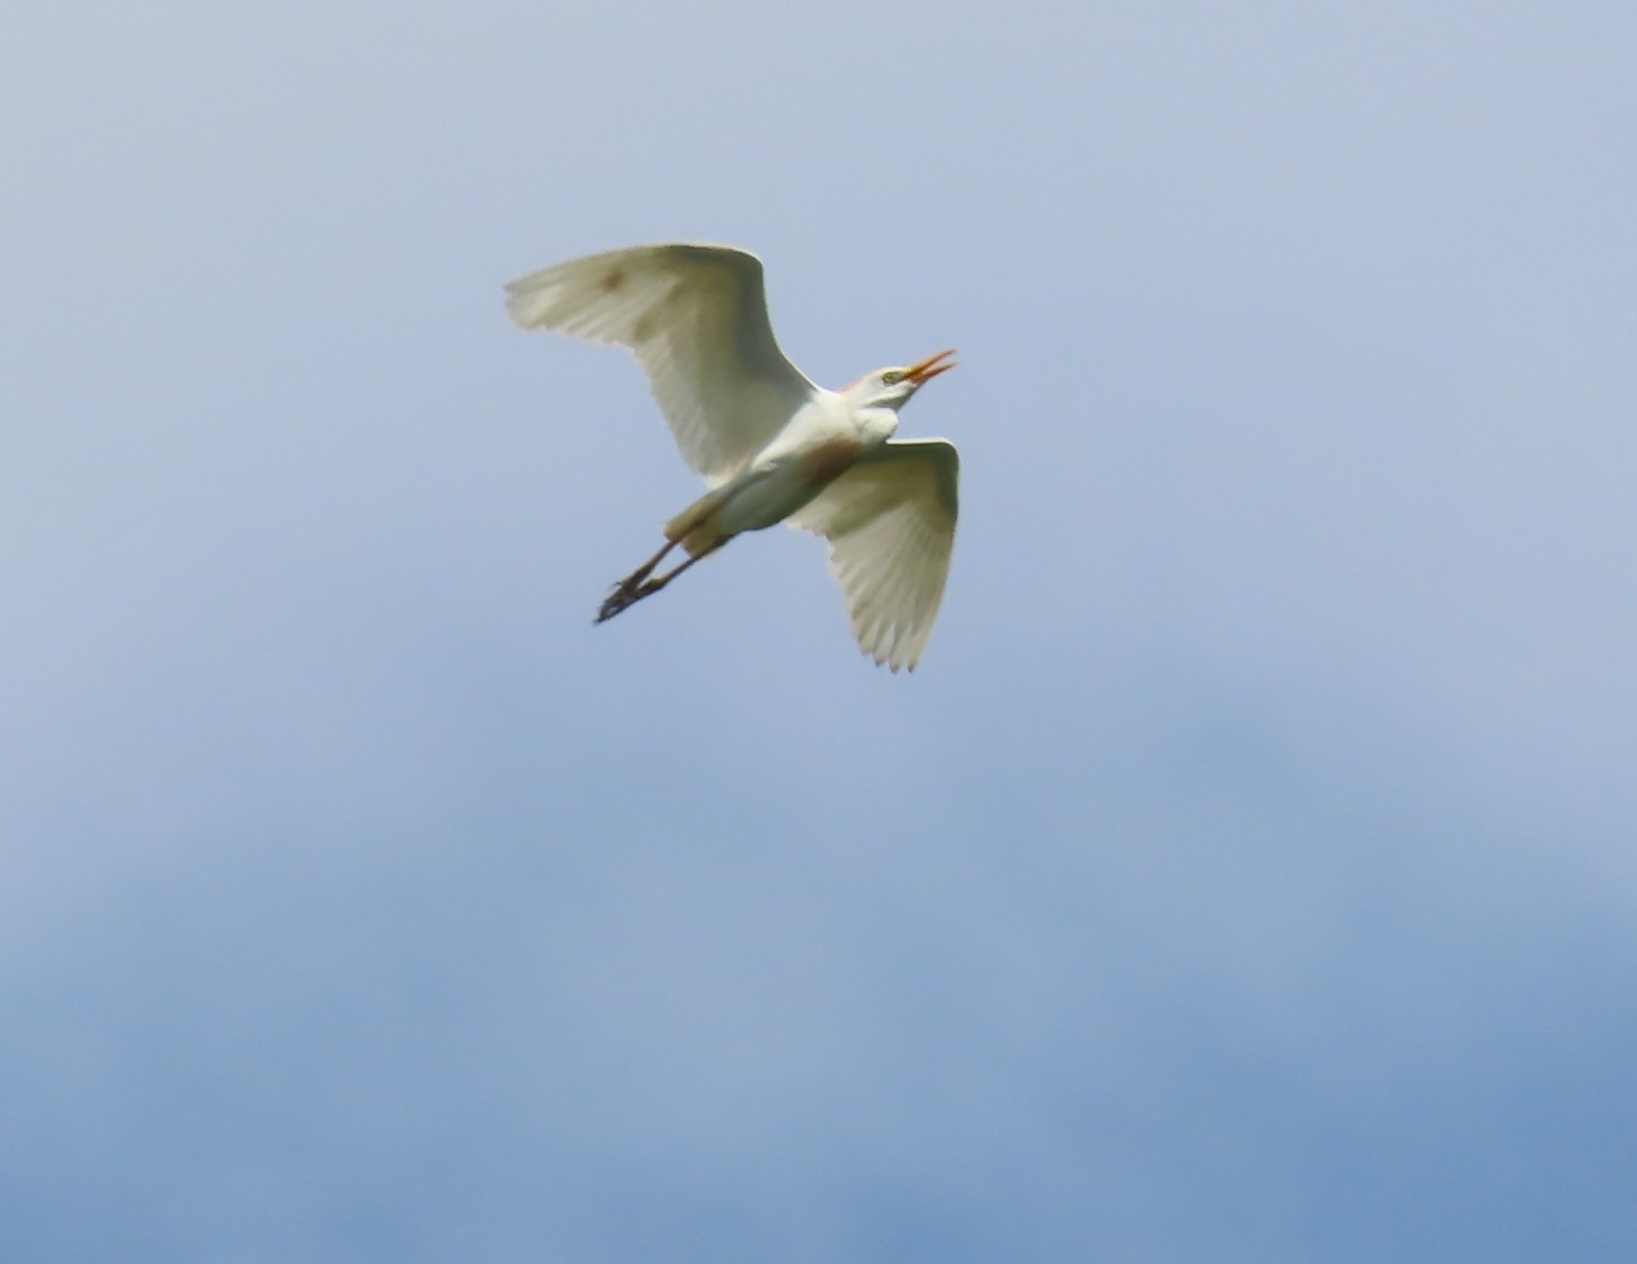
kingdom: Animalia
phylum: Chordata
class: Aves
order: Pelecaniformes
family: Ardeidae
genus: Bubulcus
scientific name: Bubulcus ibis
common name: Cattle egret
